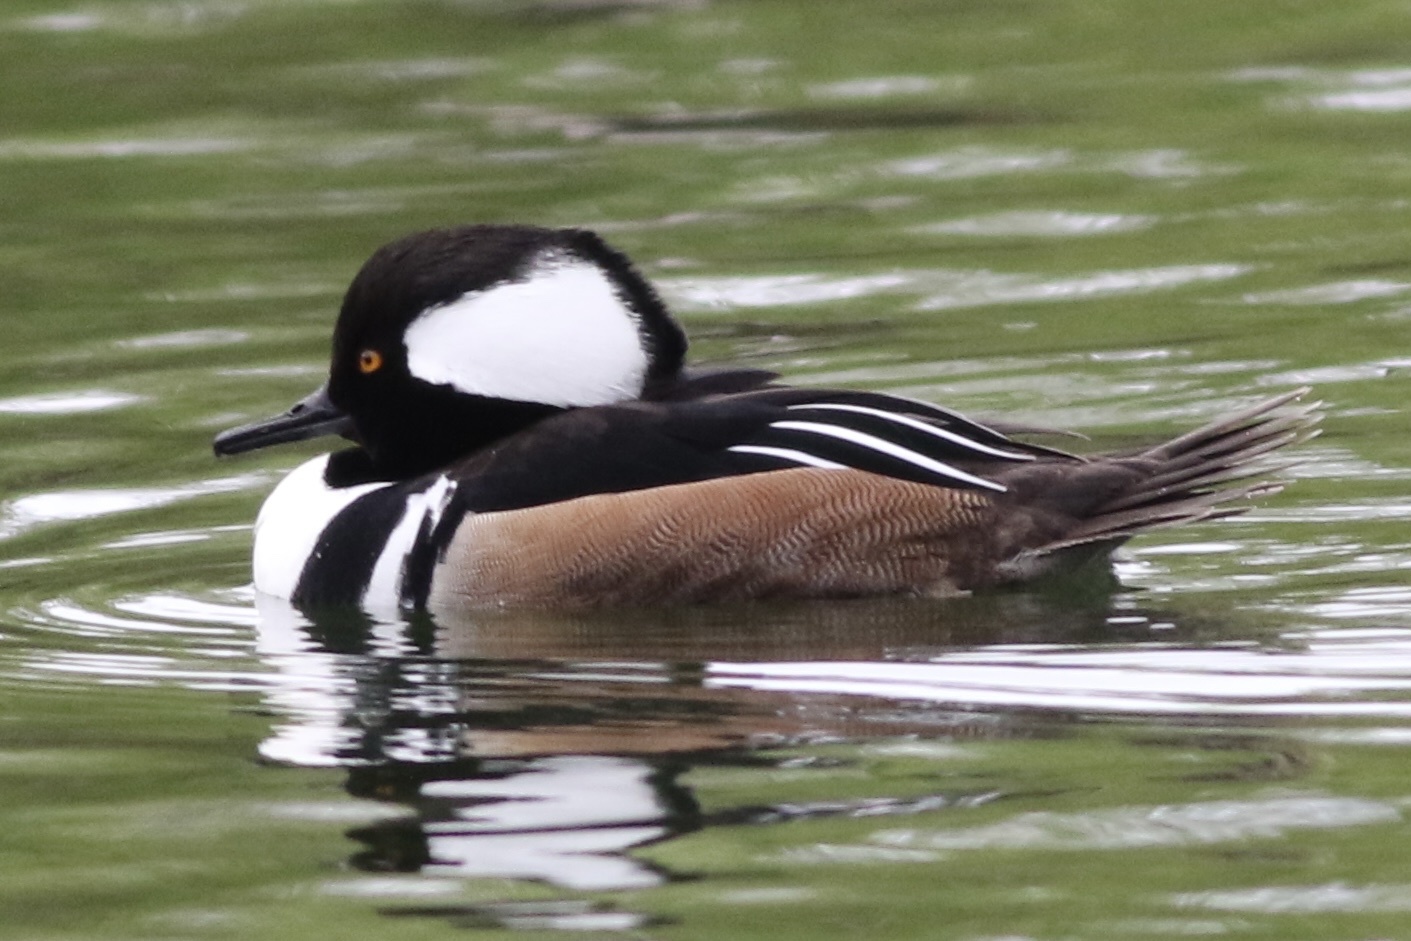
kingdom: Animalia
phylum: Chordata
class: Aves
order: Anseriformes
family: Anatidae
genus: Lophodytes
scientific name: Lophodytes cucullatus
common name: Hooded merganser
